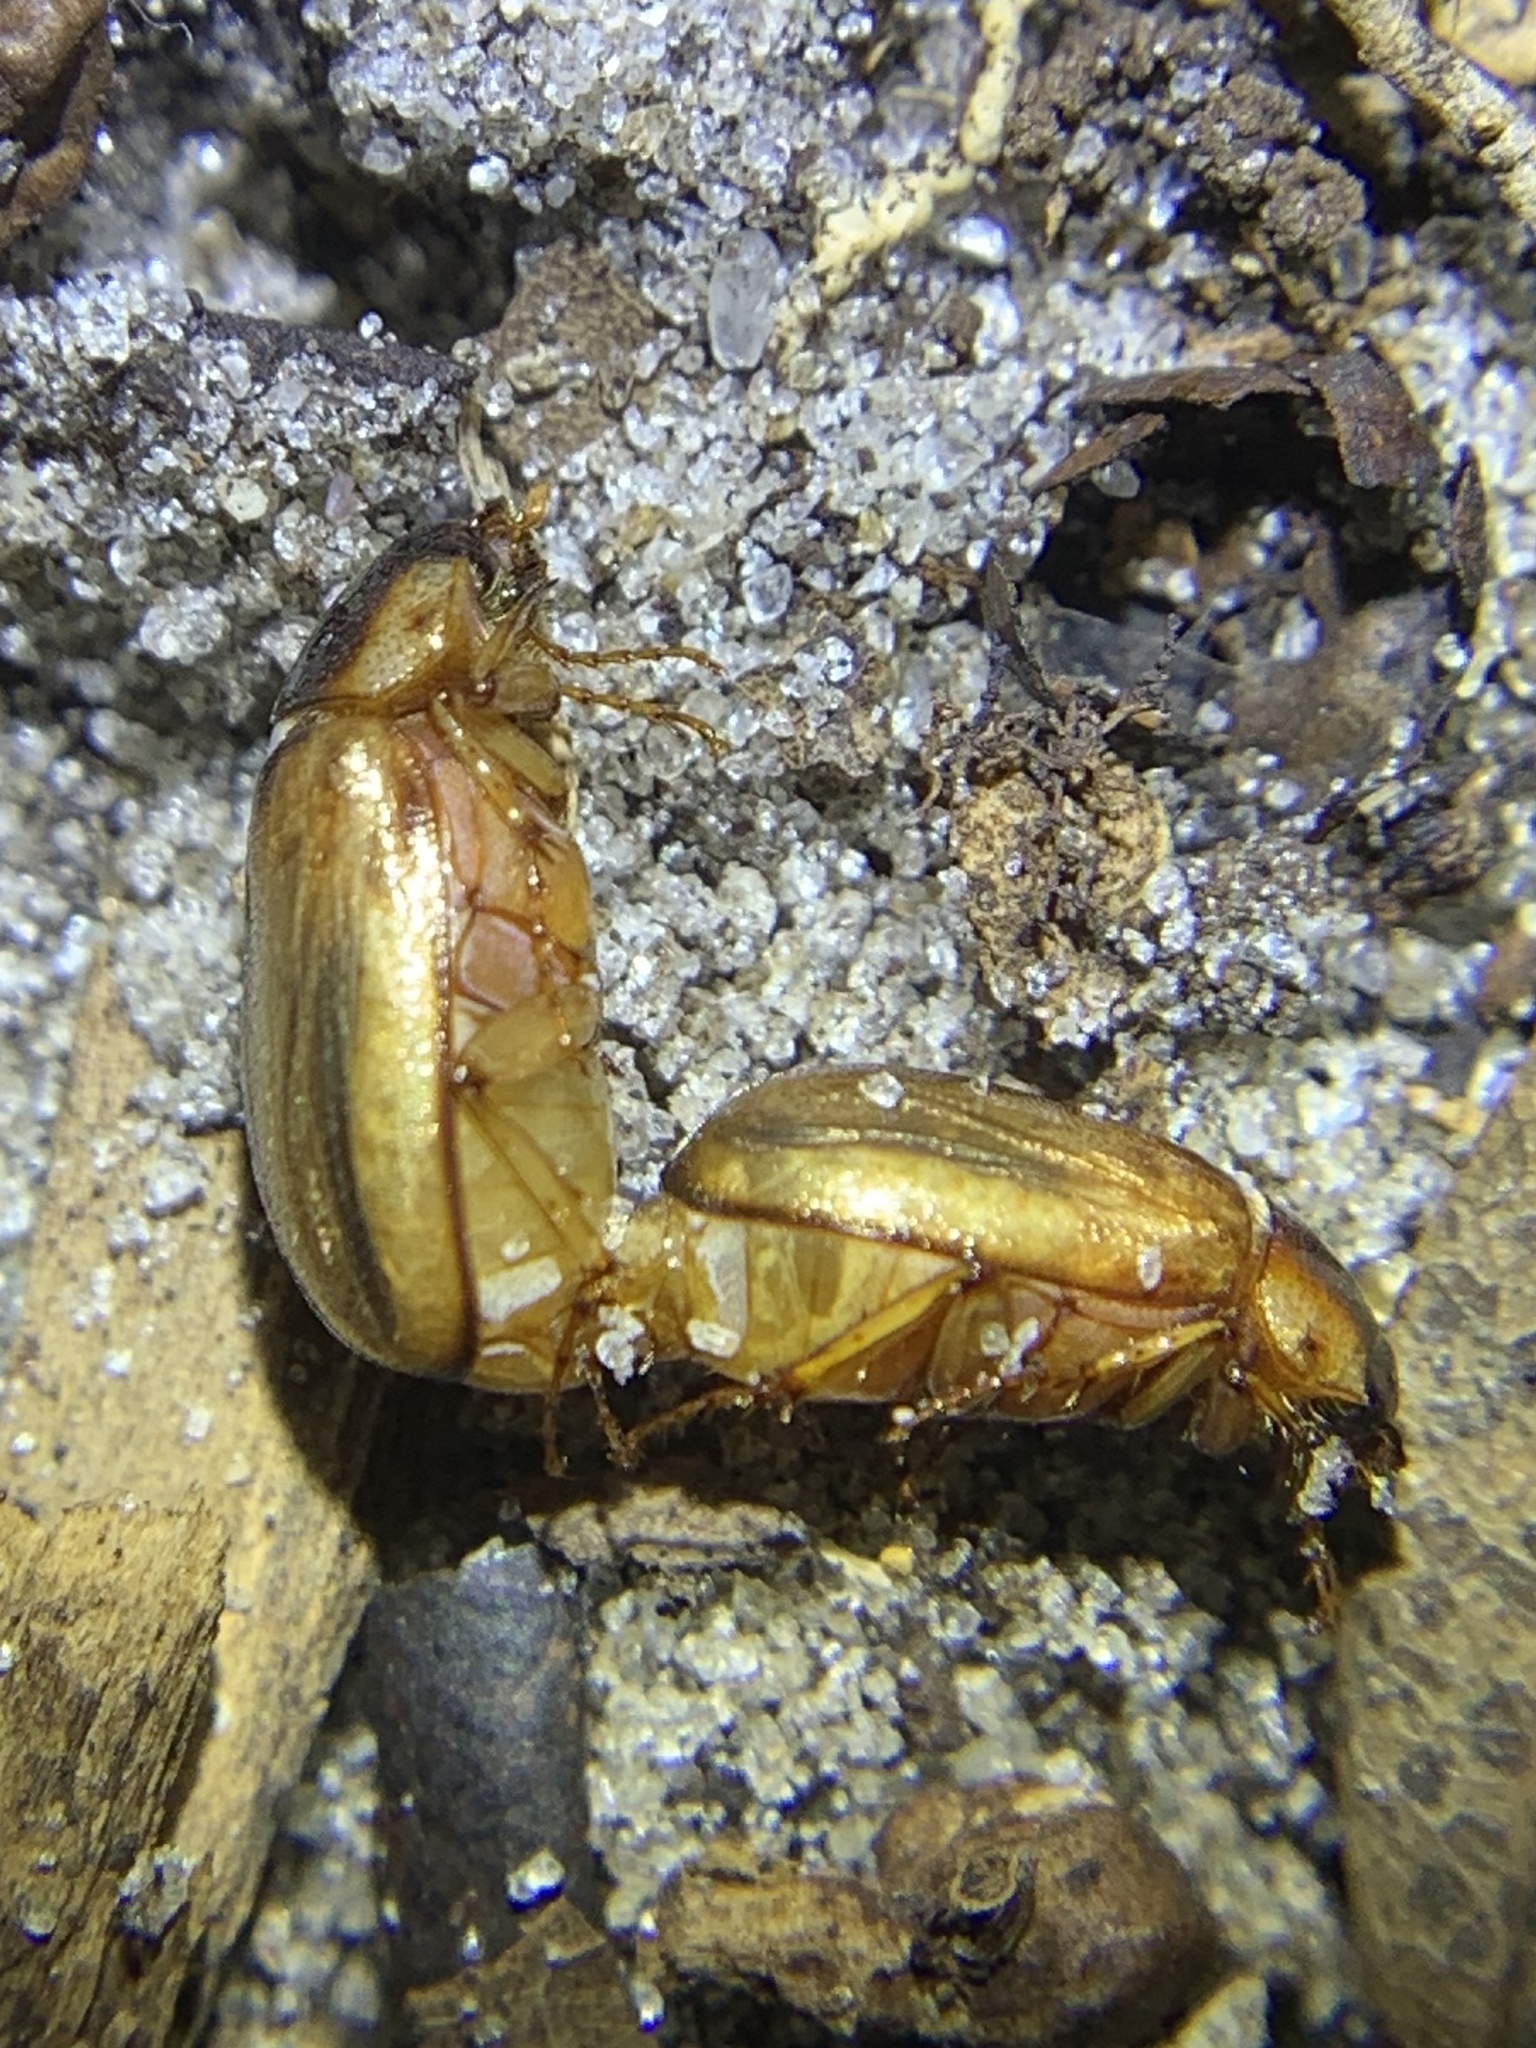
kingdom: Animalia
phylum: Arthropoda
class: Insecta
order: Coleoptera
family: Scarabaeidae
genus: Phyllophaga
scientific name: Phyllophaga bruneri
